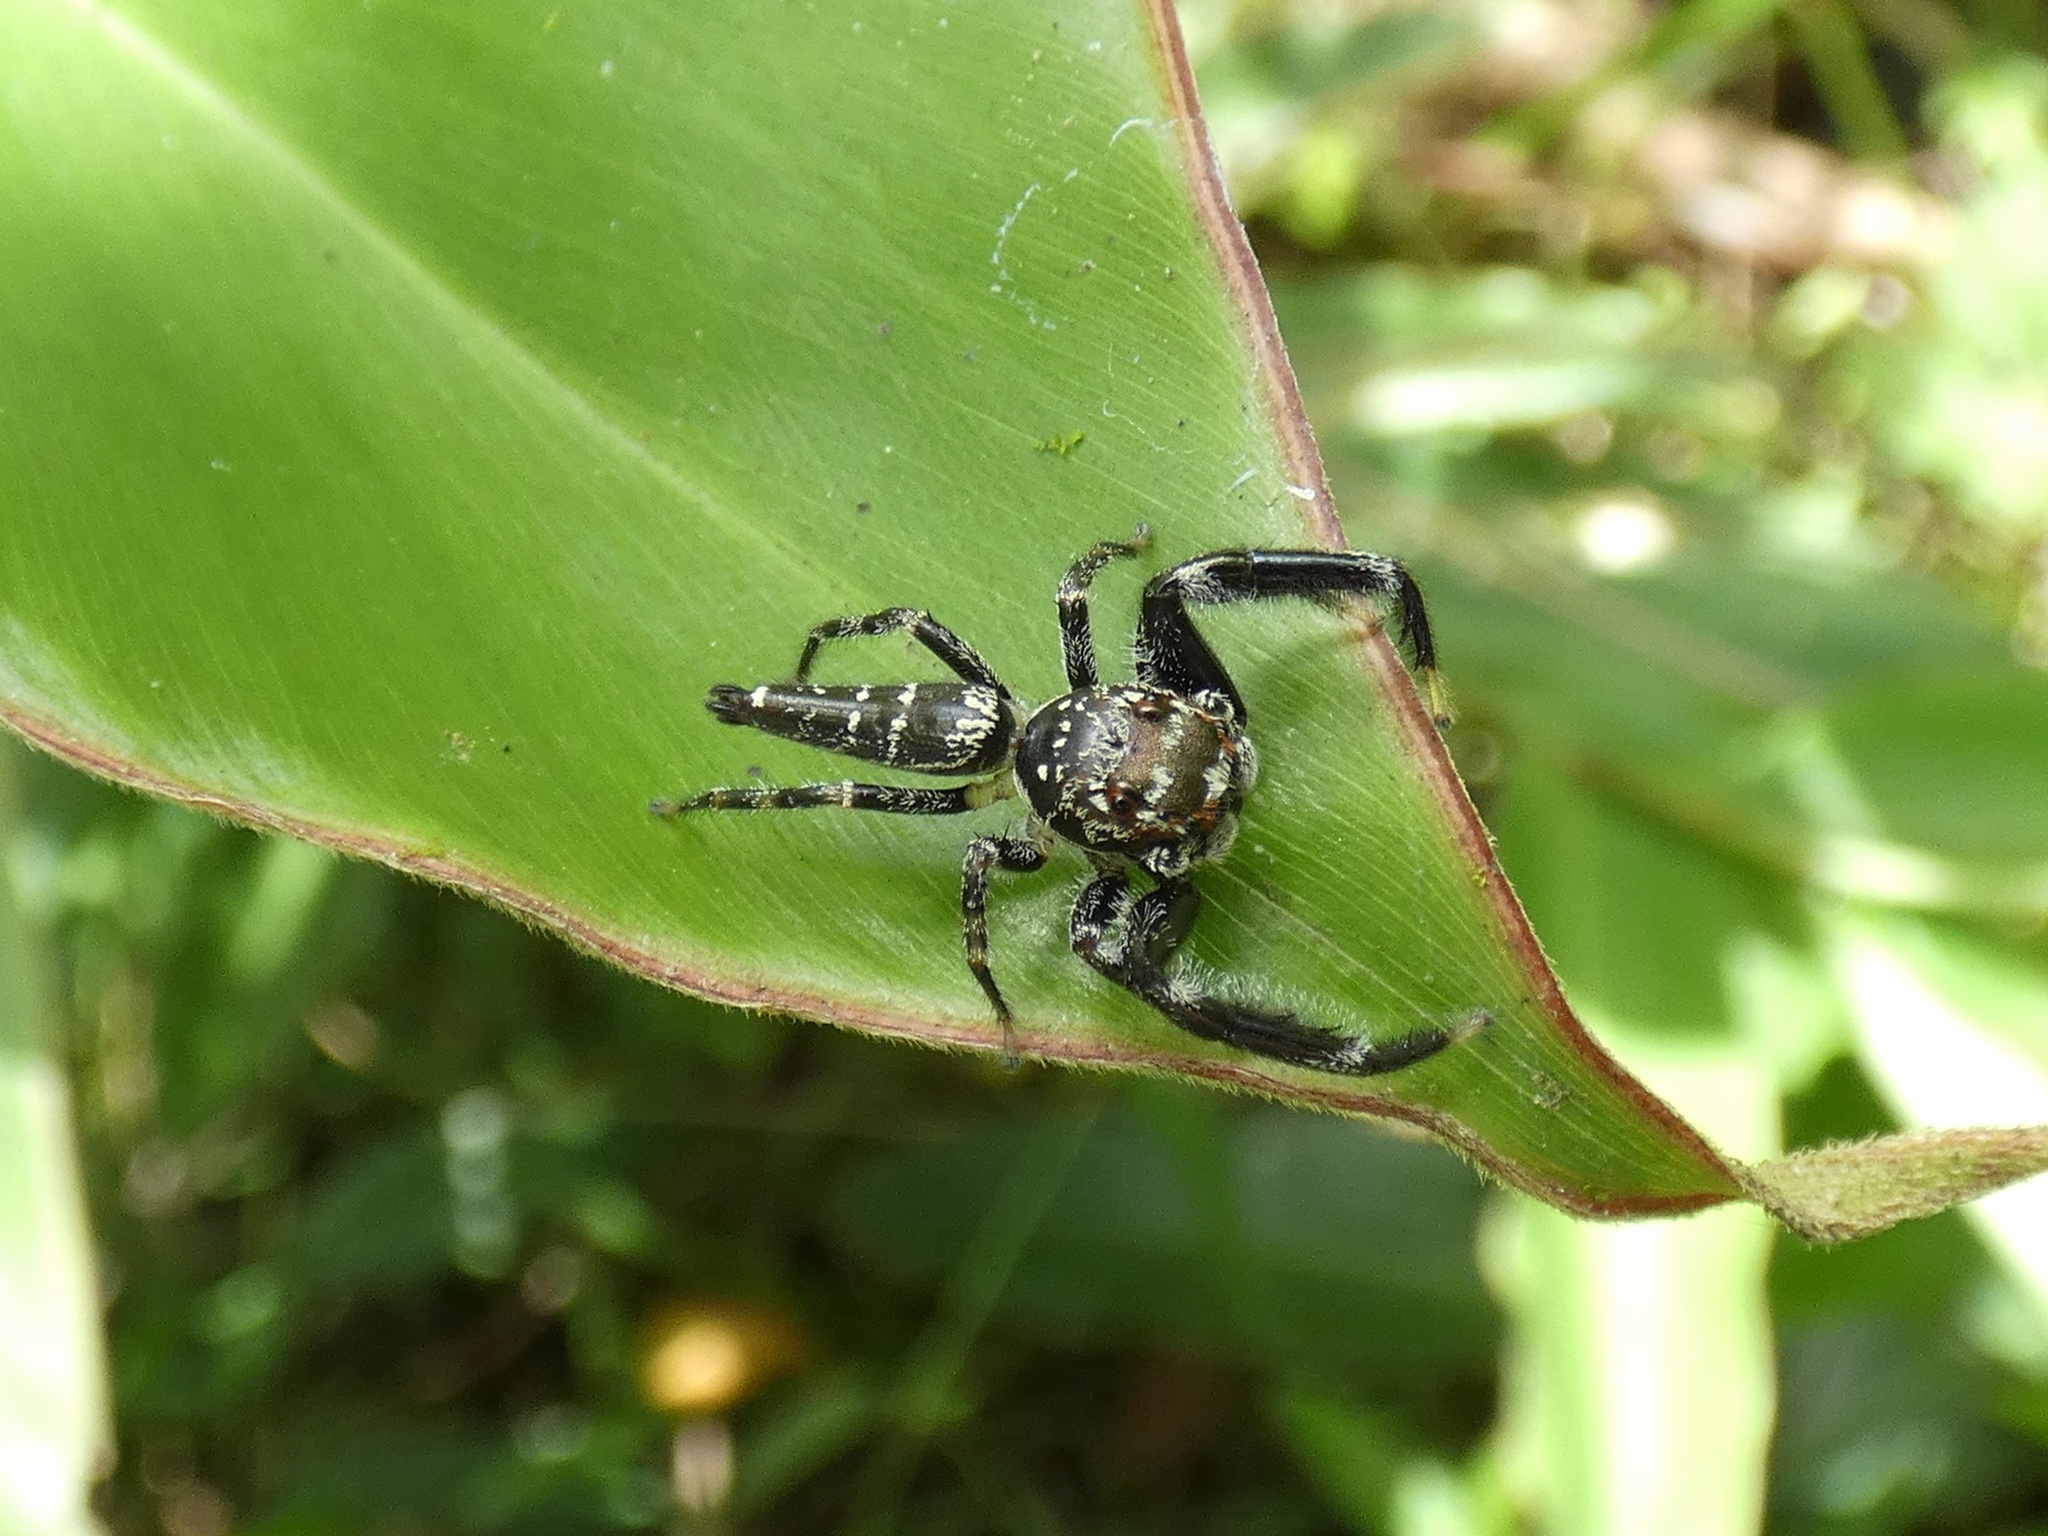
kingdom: Animalia
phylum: Arthropoda
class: Arachnida
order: Araneae
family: Salticidae
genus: Bavia
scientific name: Bavia sexpunctata
